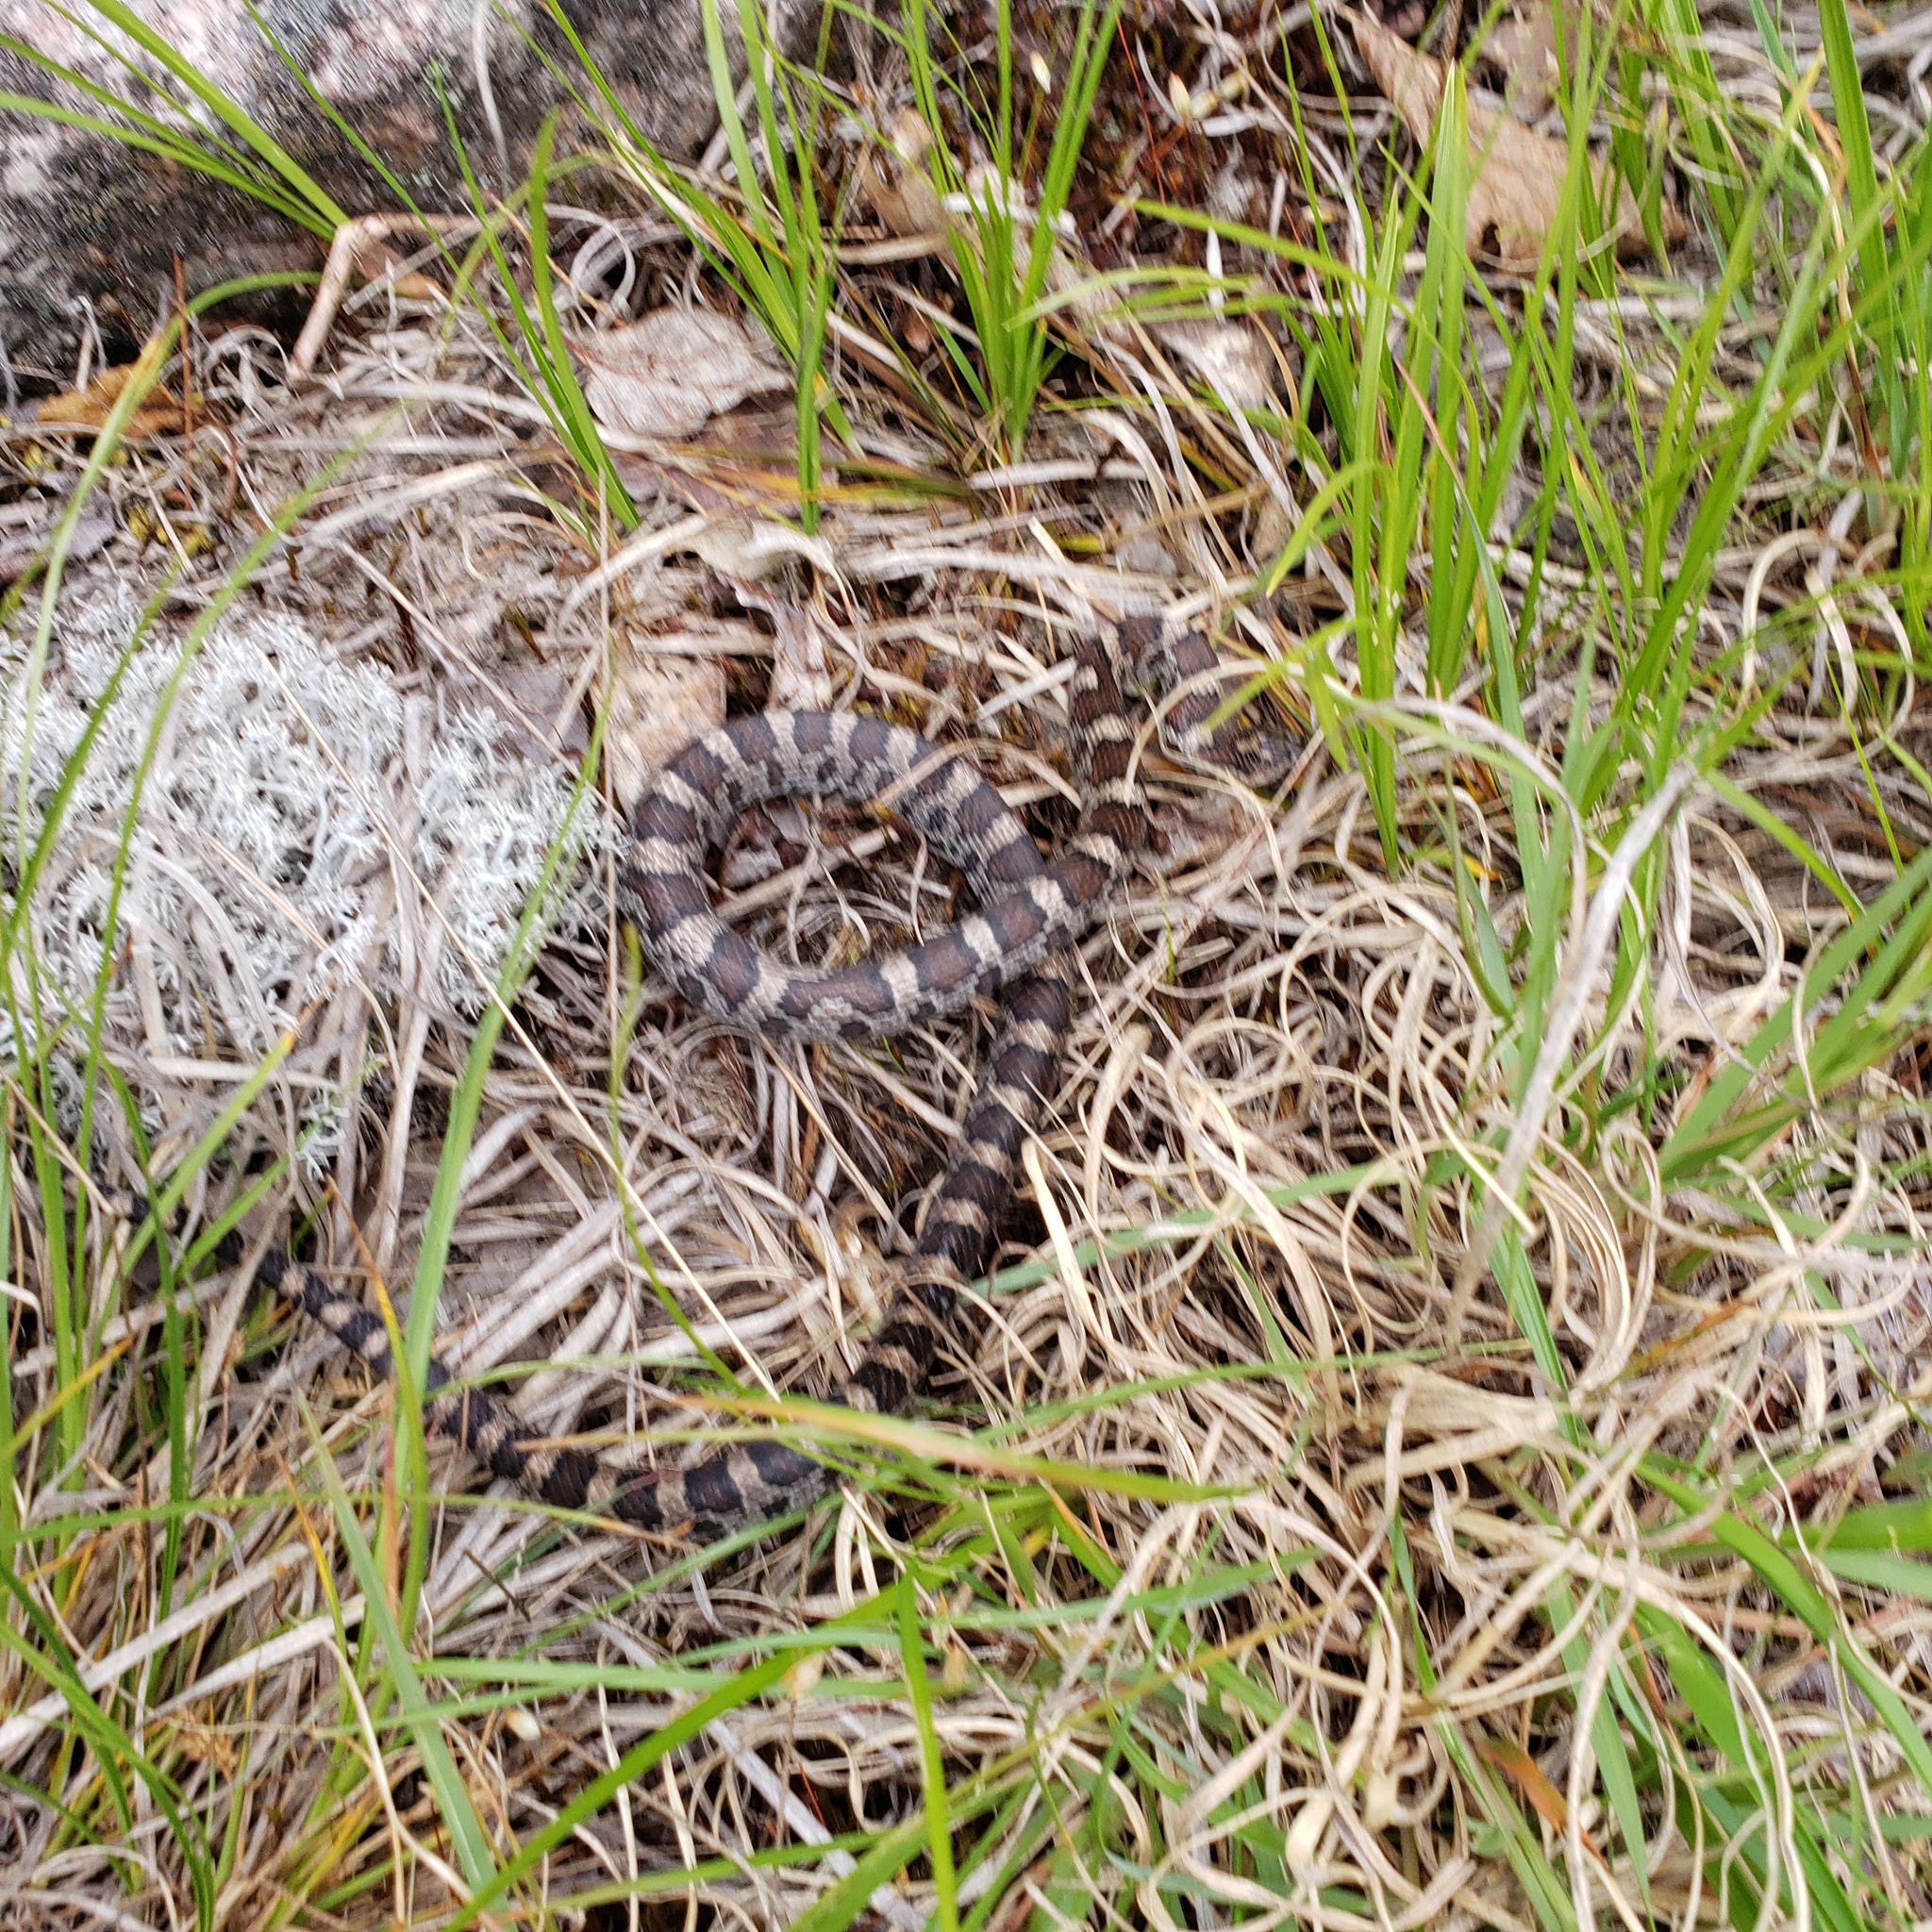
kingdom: Animalia
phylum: Chordata
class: Squamata
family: Colubridae
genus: Lampropeltis
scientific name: Lampropeltis triangulum
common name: Eastern milksnake
